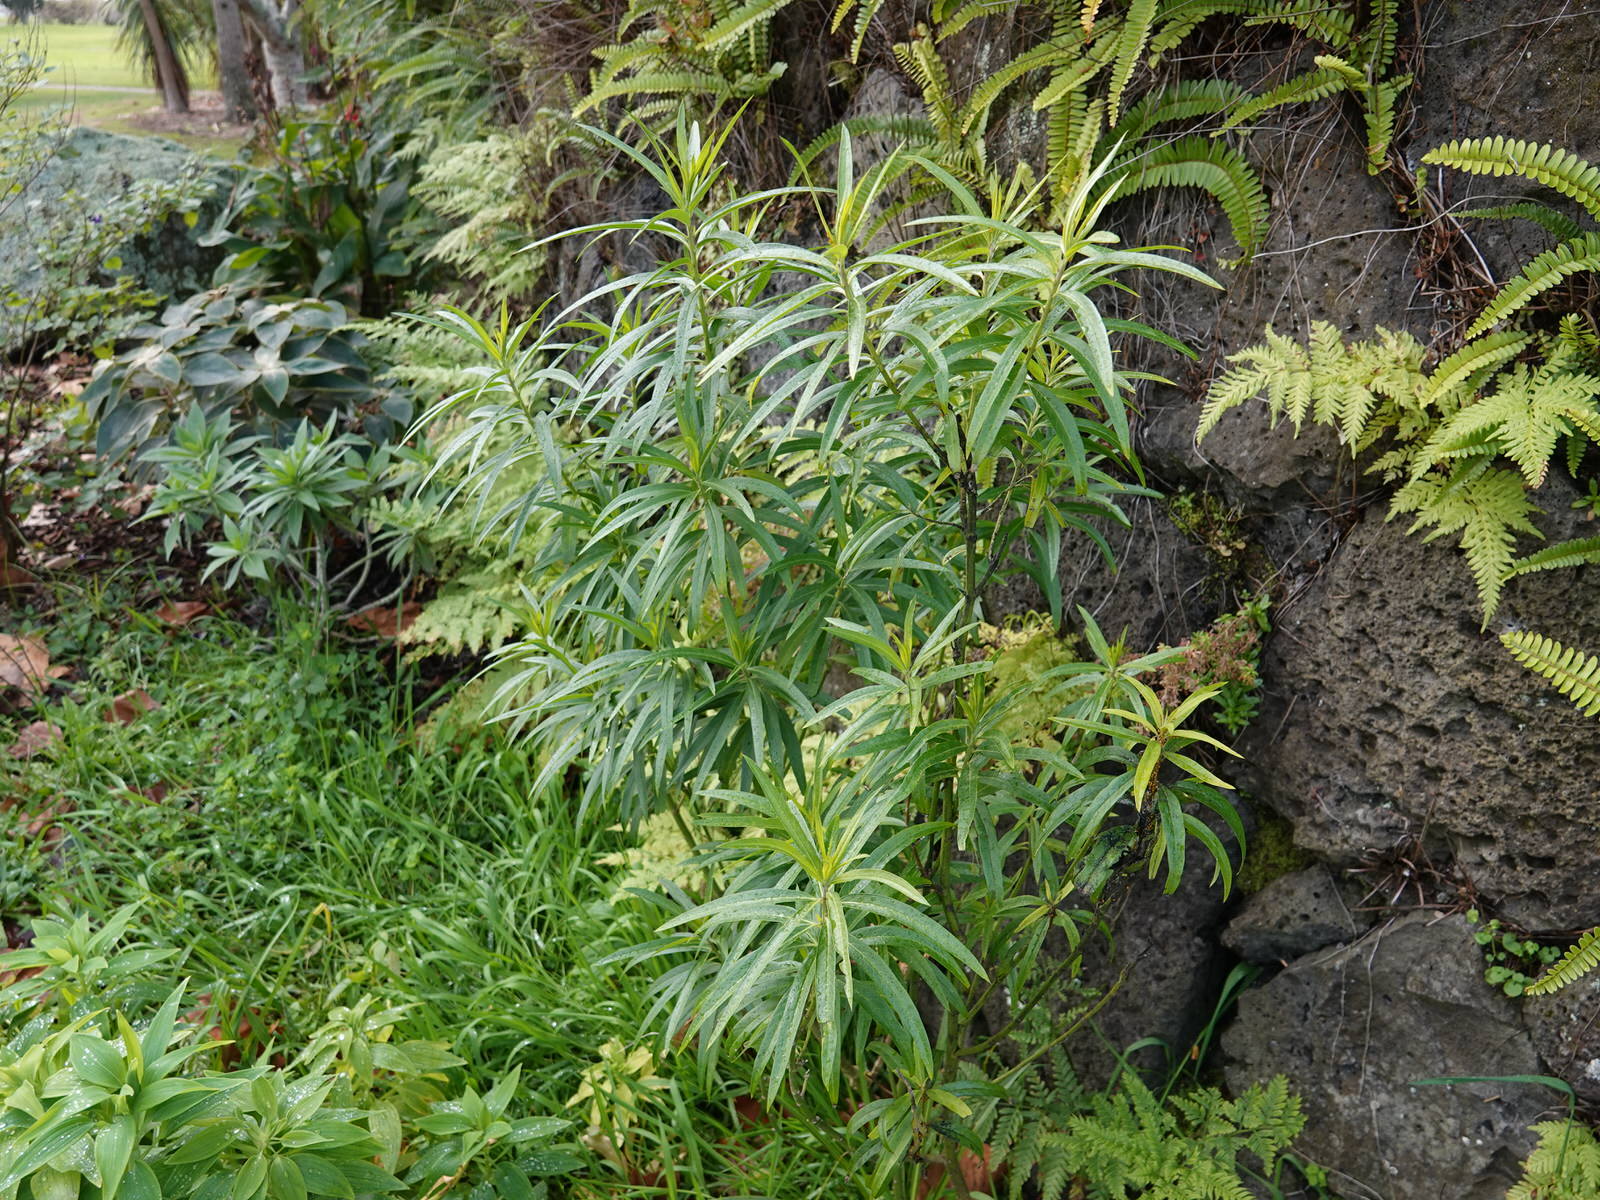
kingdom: Animalia
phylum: Arthropoda
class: Insecta
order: Hemiptera
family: Aphididae
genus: Aphis
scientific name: Aphis nerii
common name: Oleander aphid
